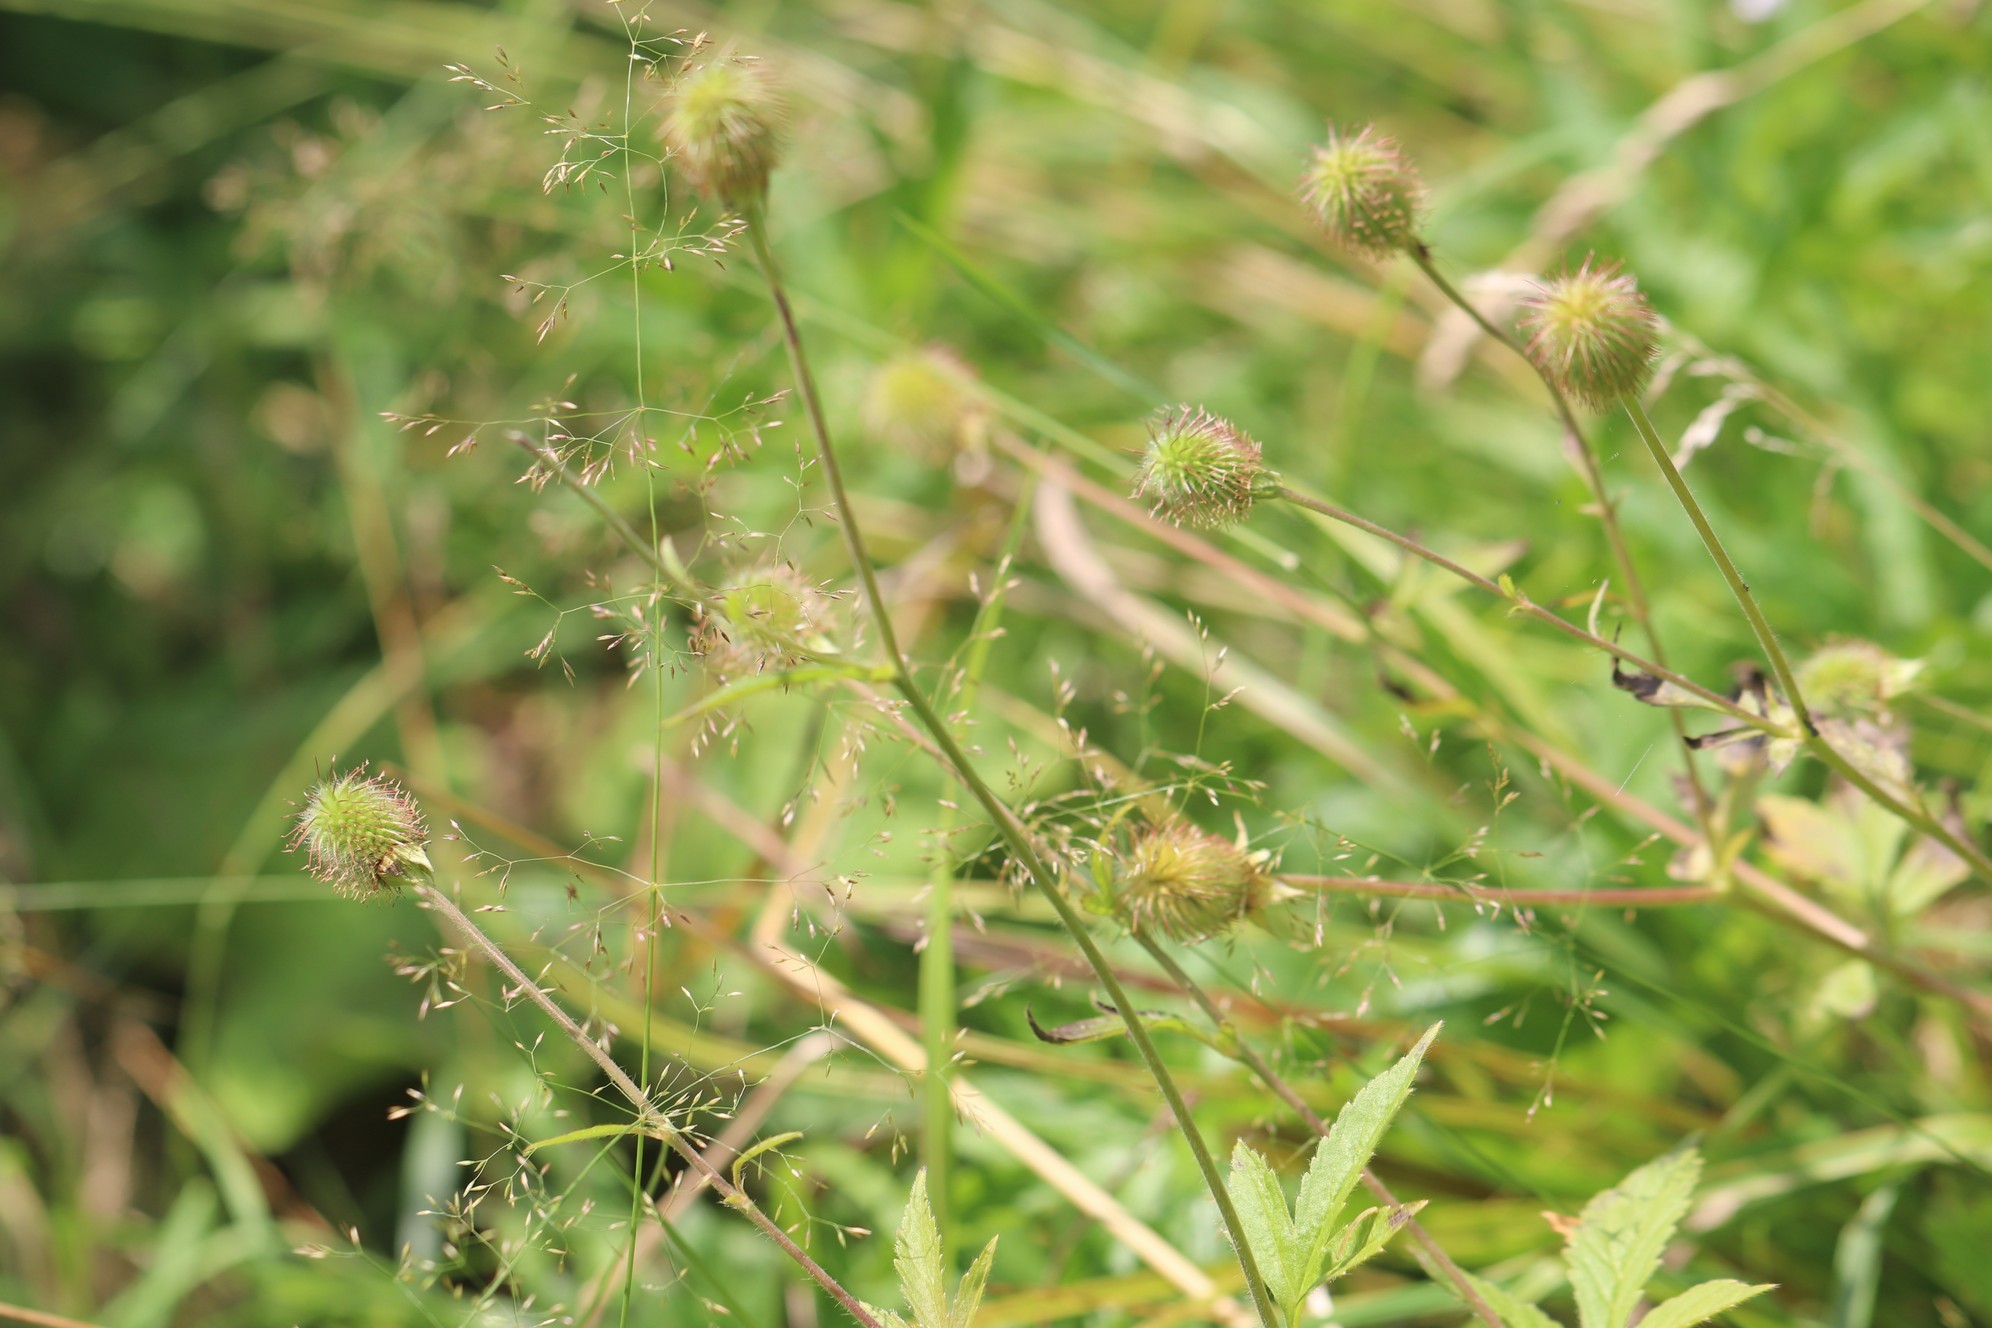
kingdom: Plantae
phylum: Tracheophyta
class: Magnoliopsida
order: Rosales
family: Rosaceae
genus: Geum
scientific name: Geum aleppicum
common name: Yellow avens
